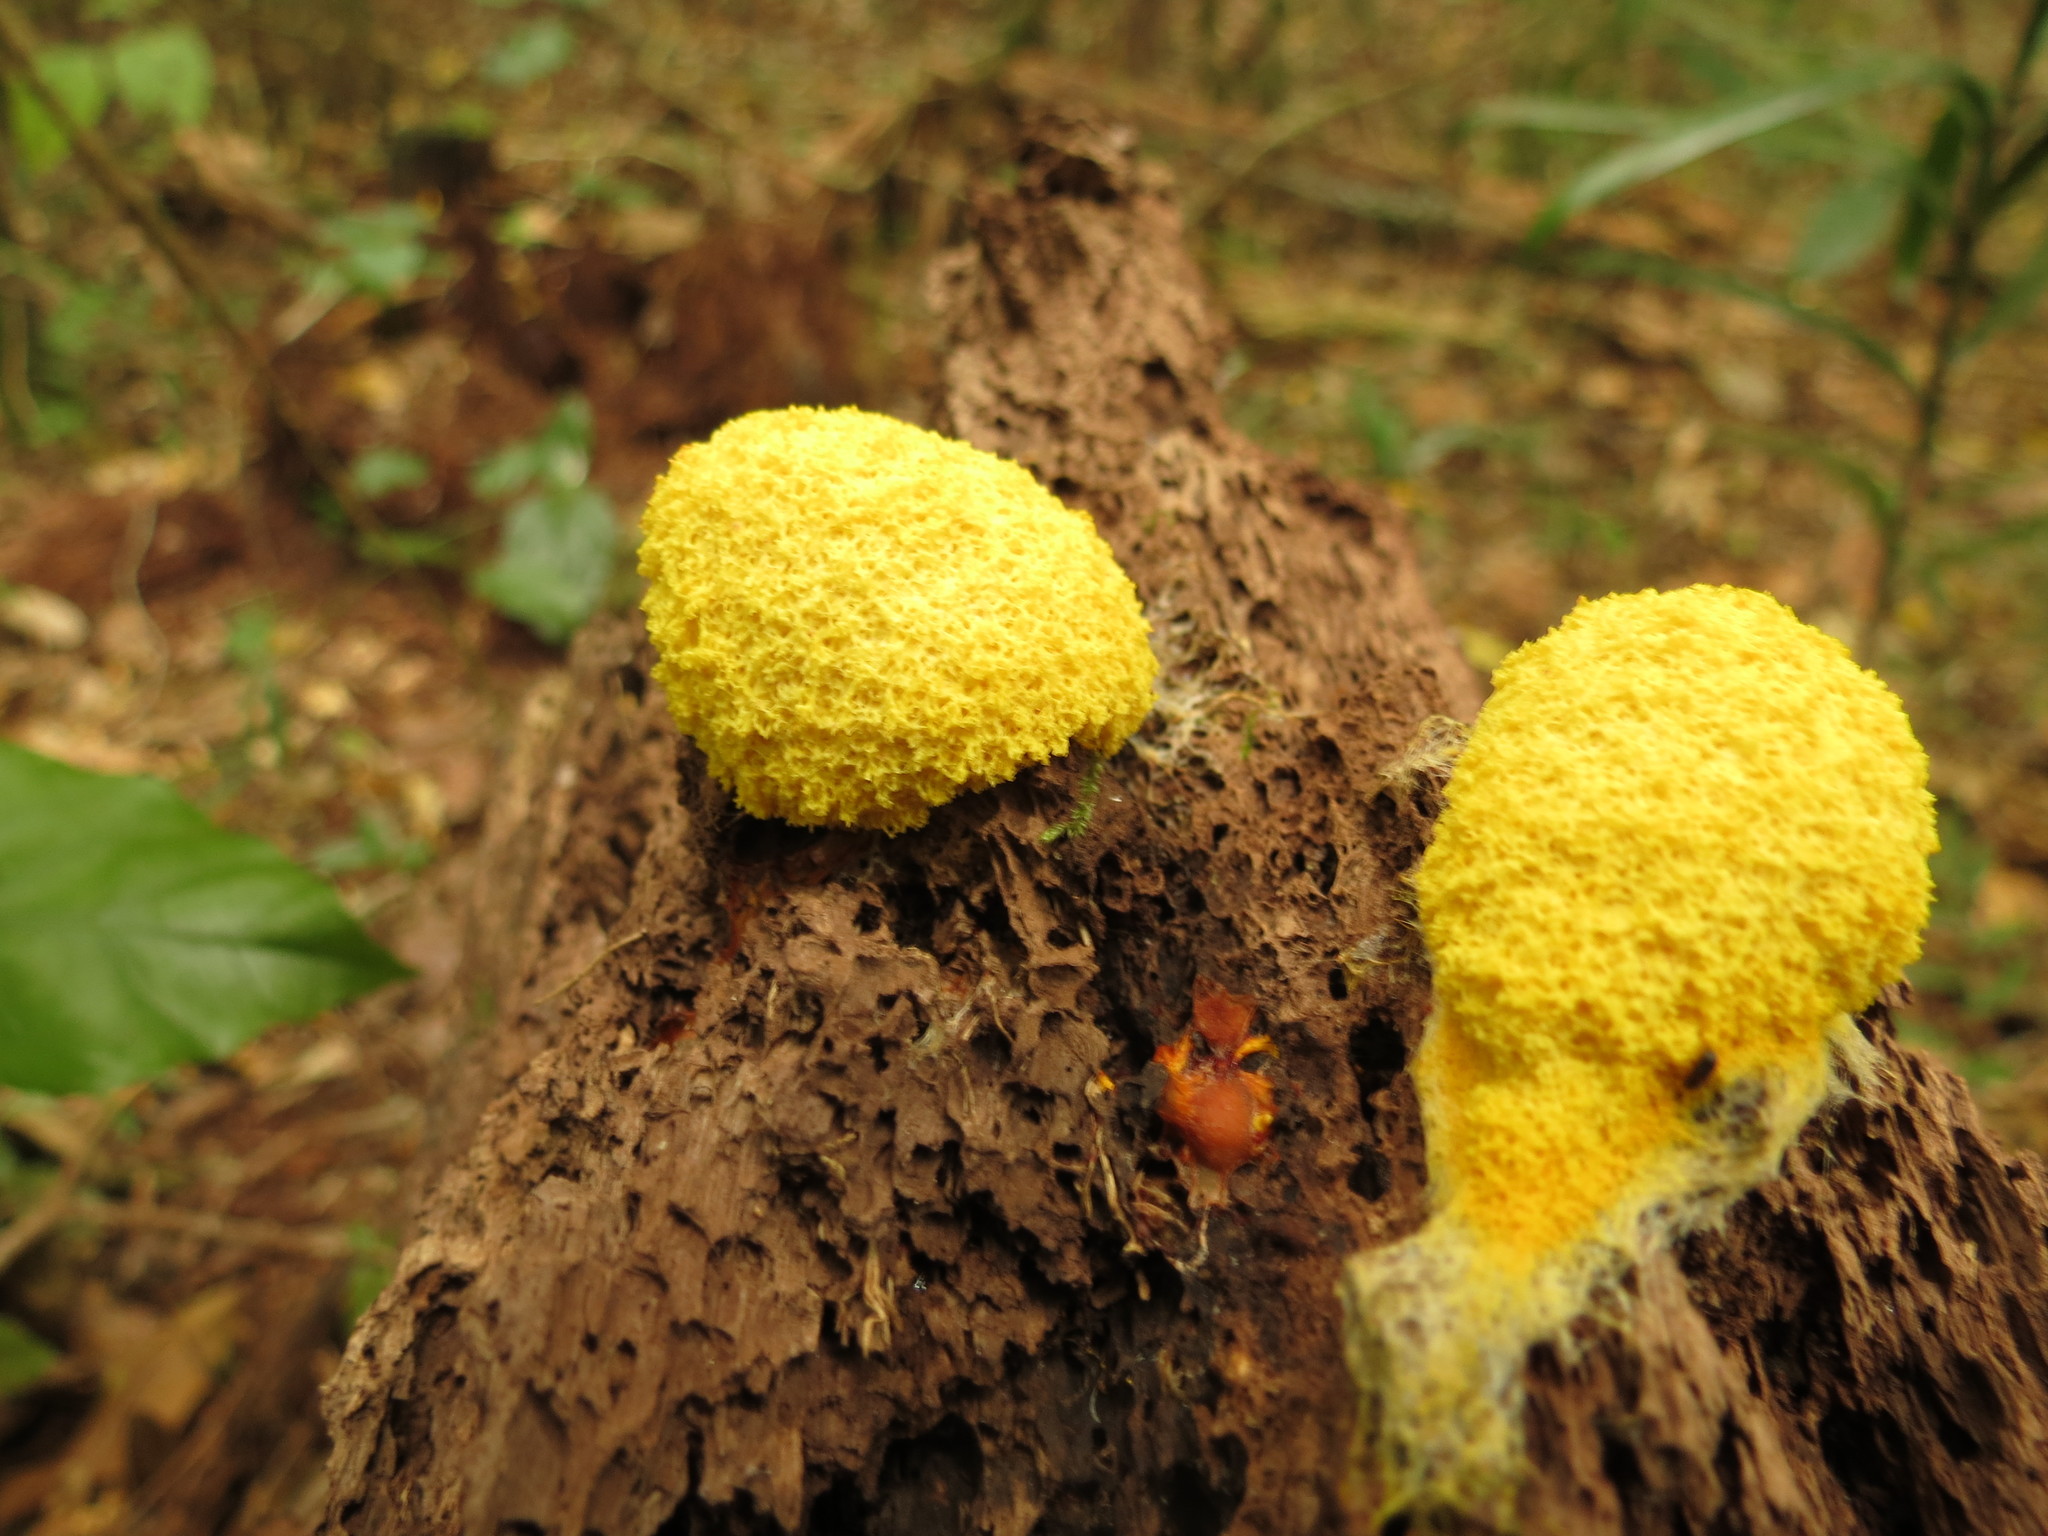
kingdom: Protozoa
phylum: Mycetozoa
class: Myxomycetes
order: Physarales
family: Physaraceae
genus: Fuligo
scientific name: Fuligo septica
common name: Dog vomit slime mold
